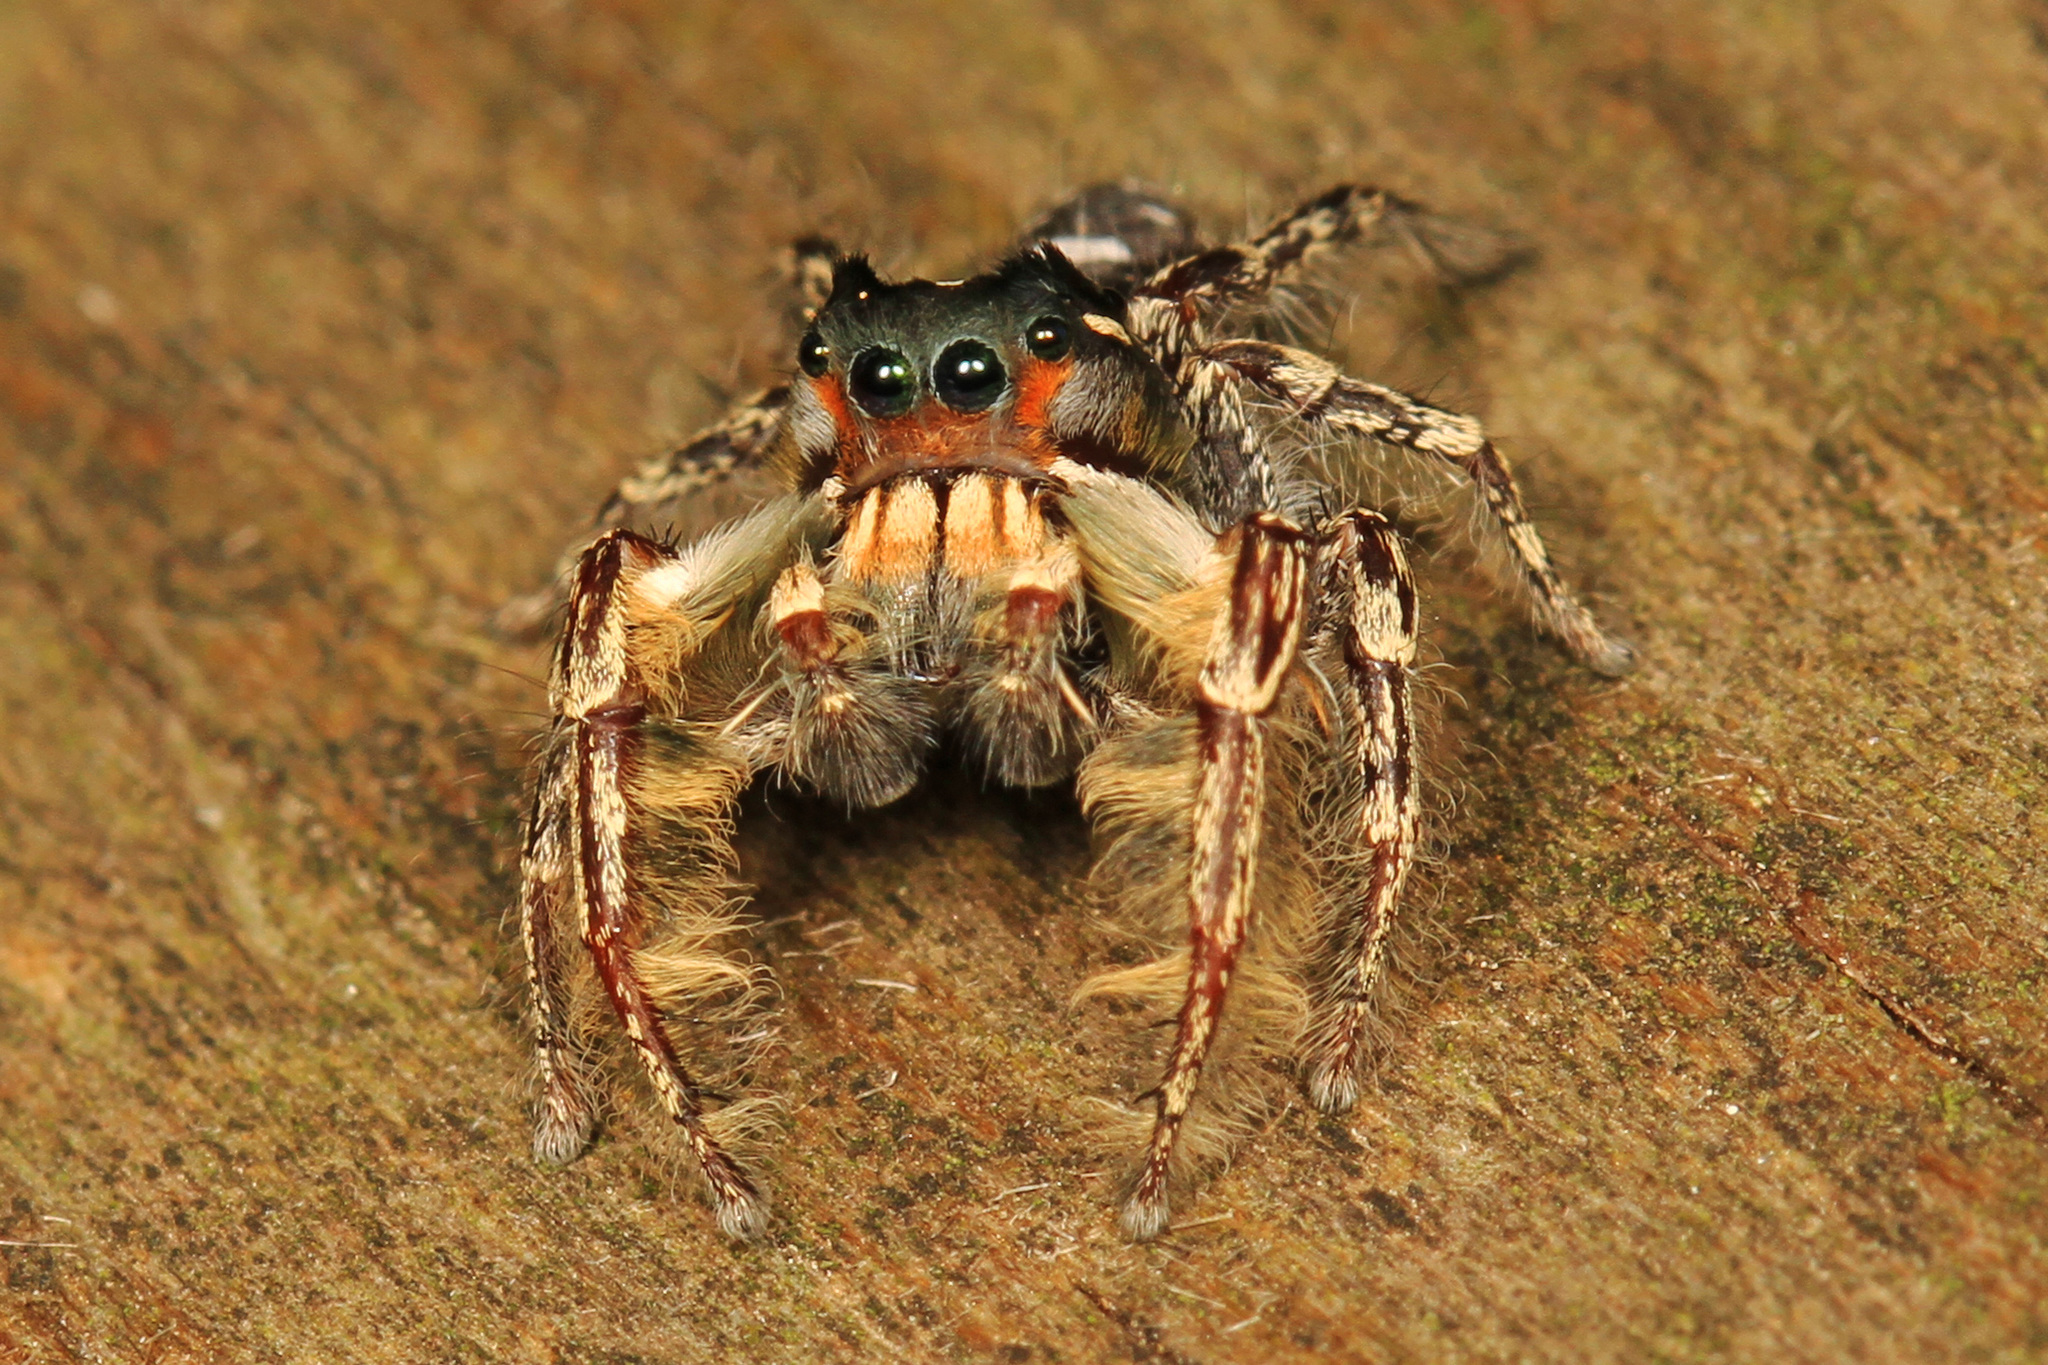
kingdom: Animalia
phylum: Arthropoda
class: Arachnida
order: Araneae
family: Salticidae
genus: Phidippus
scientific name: Phidippus putnami
